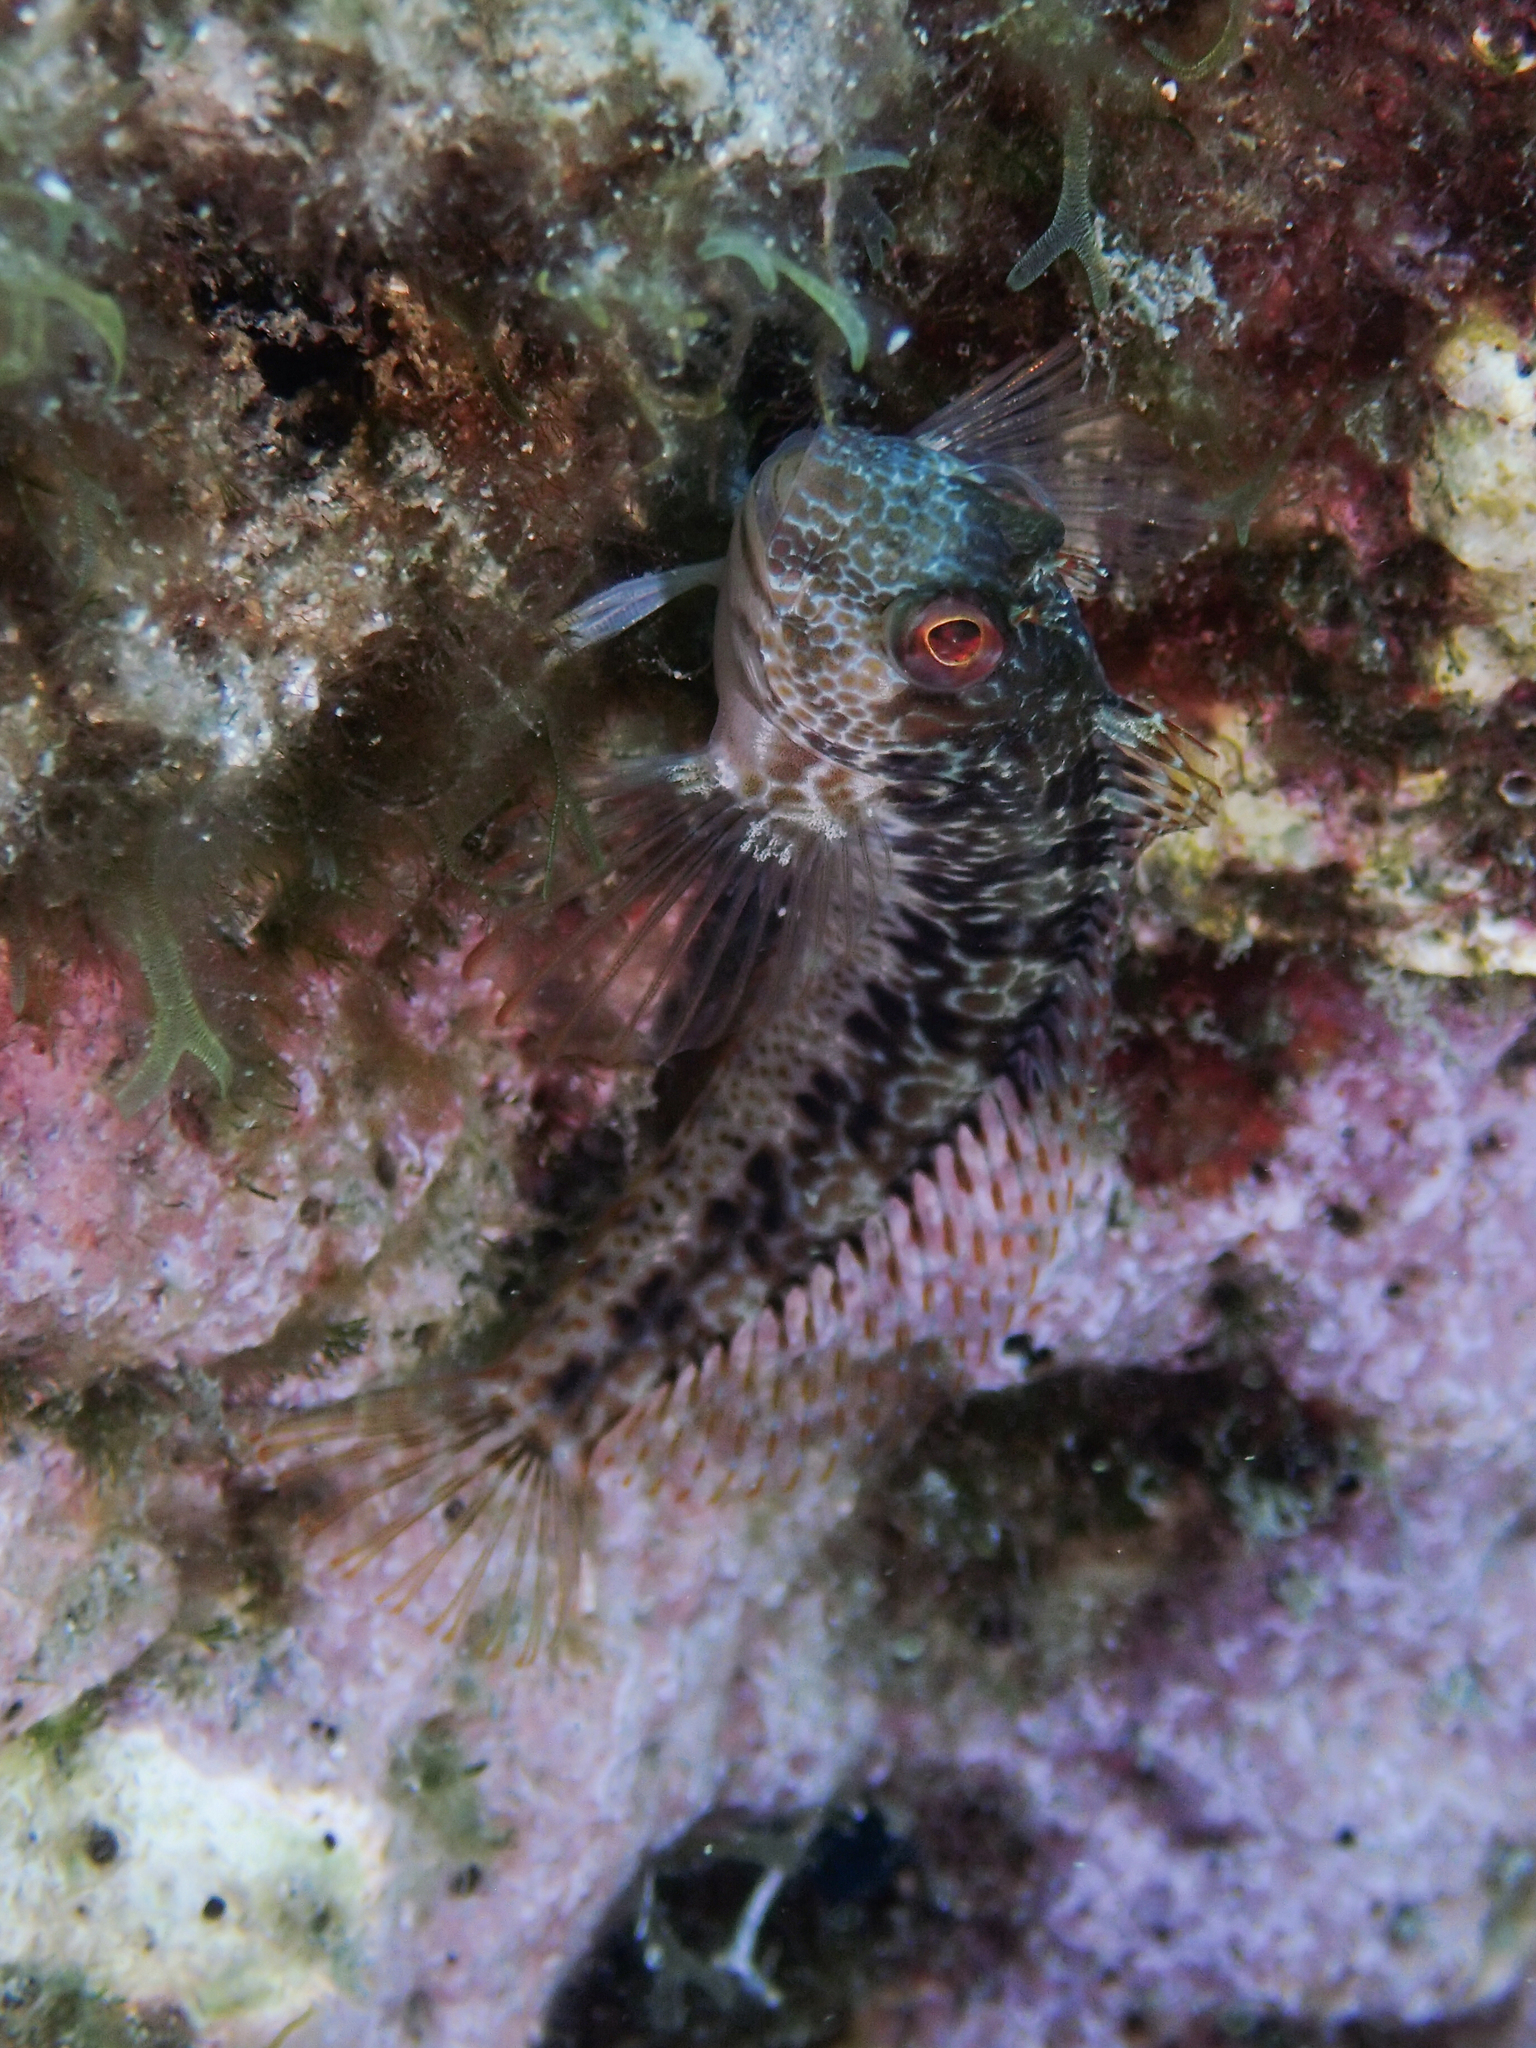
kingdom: Animalia
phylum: Chordata
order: Perciformes
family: Blenniidae
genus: Parablennius
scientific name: Parablennius pilicornis
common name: Ringneck blenny
